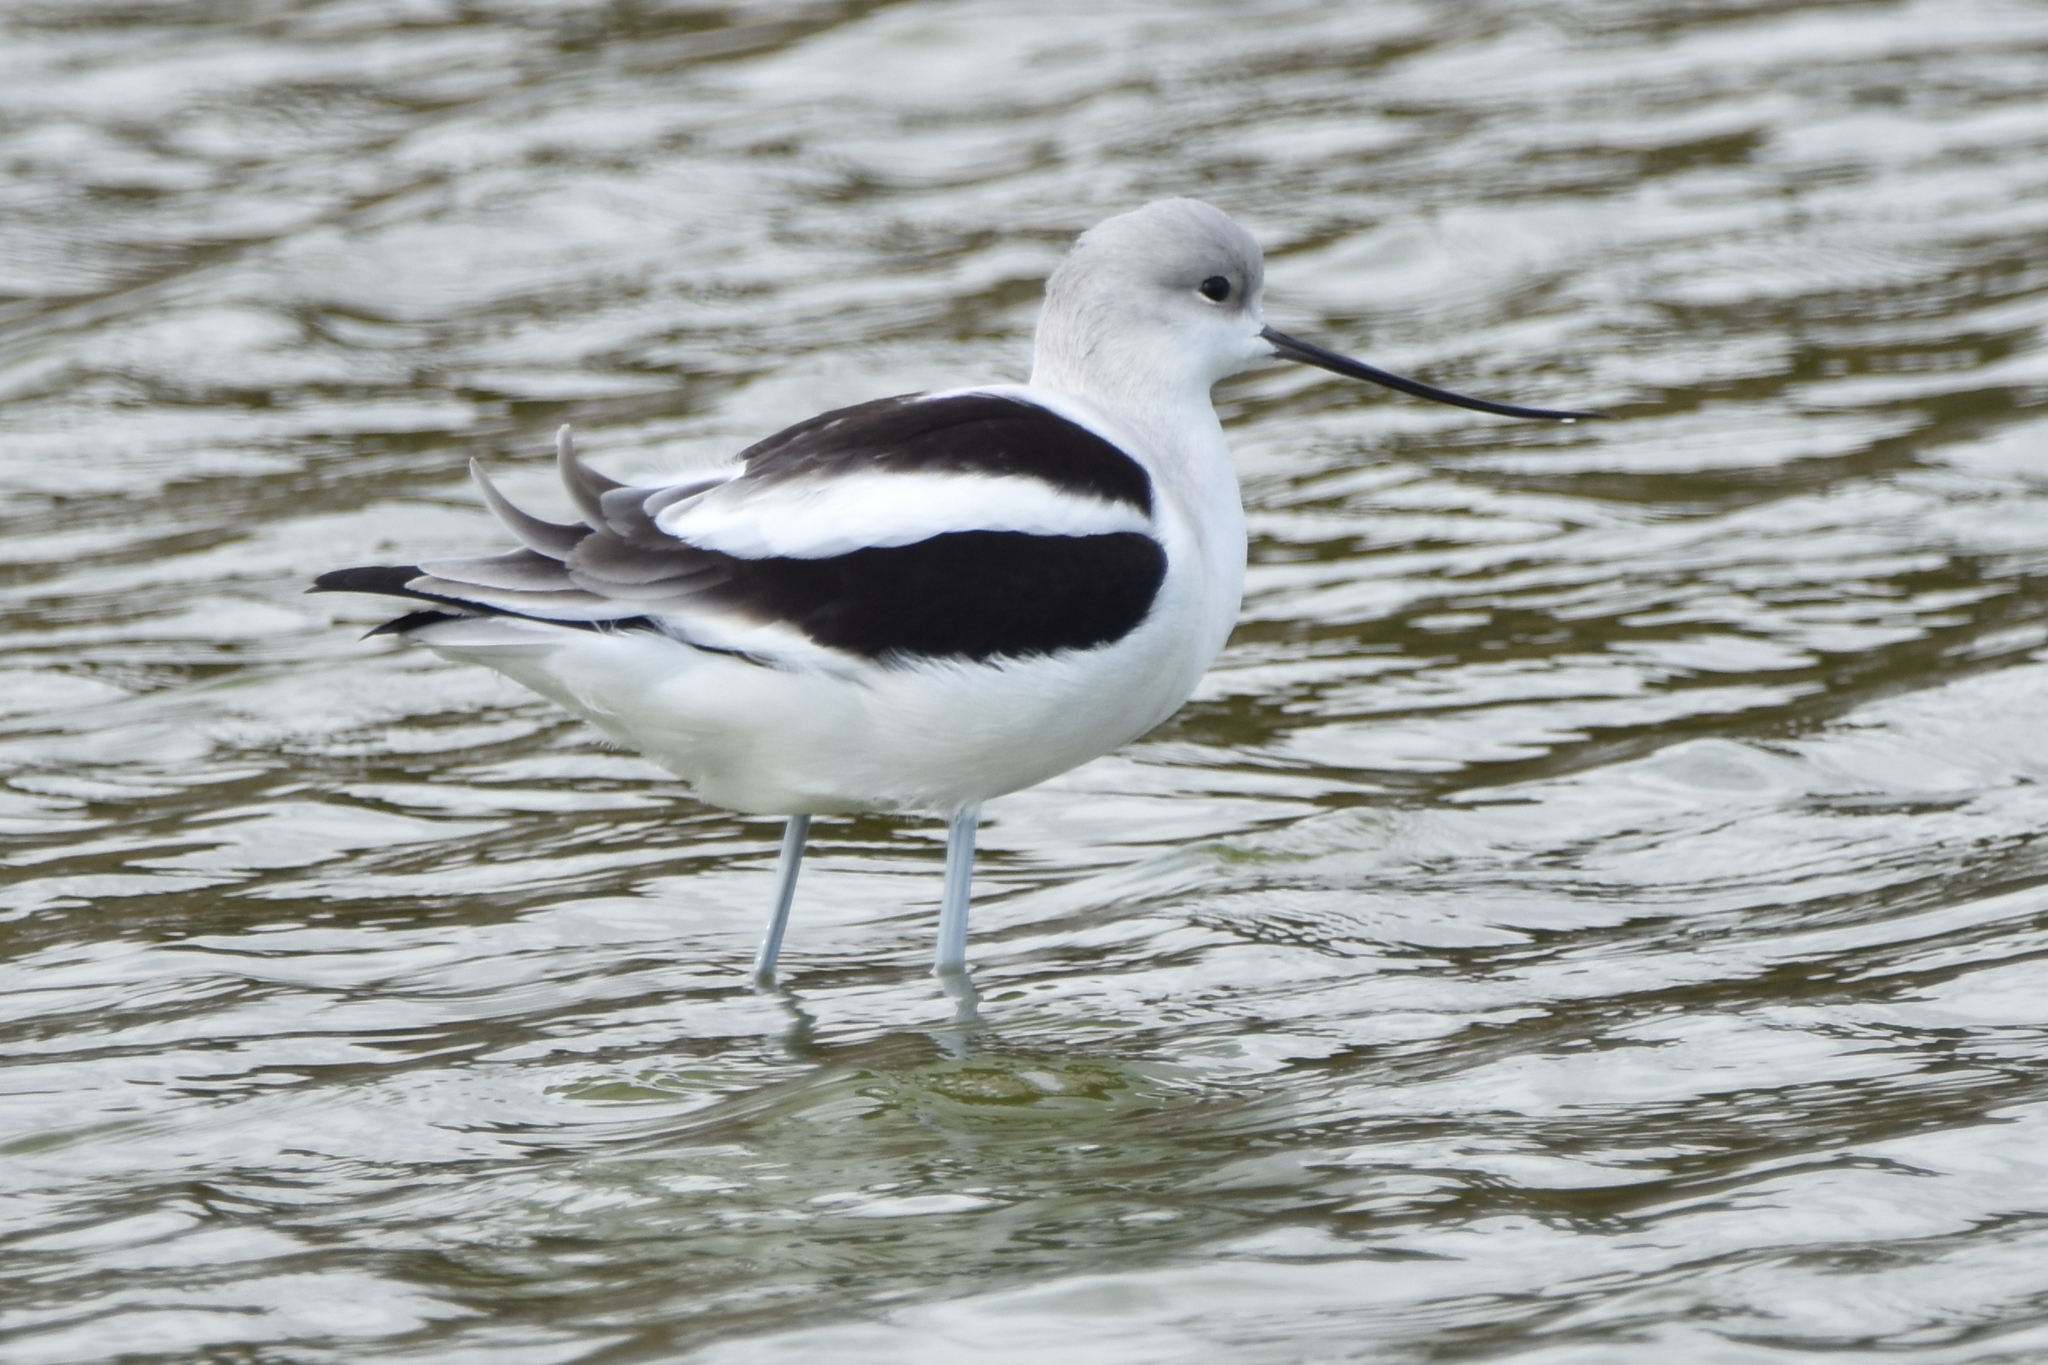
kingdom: Animalia
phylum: Chordata
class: Aves
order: Charadriiformes
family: Recurvirostridae
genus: Recurvirostra
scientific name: Recurvirostra americana
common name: American avocet
